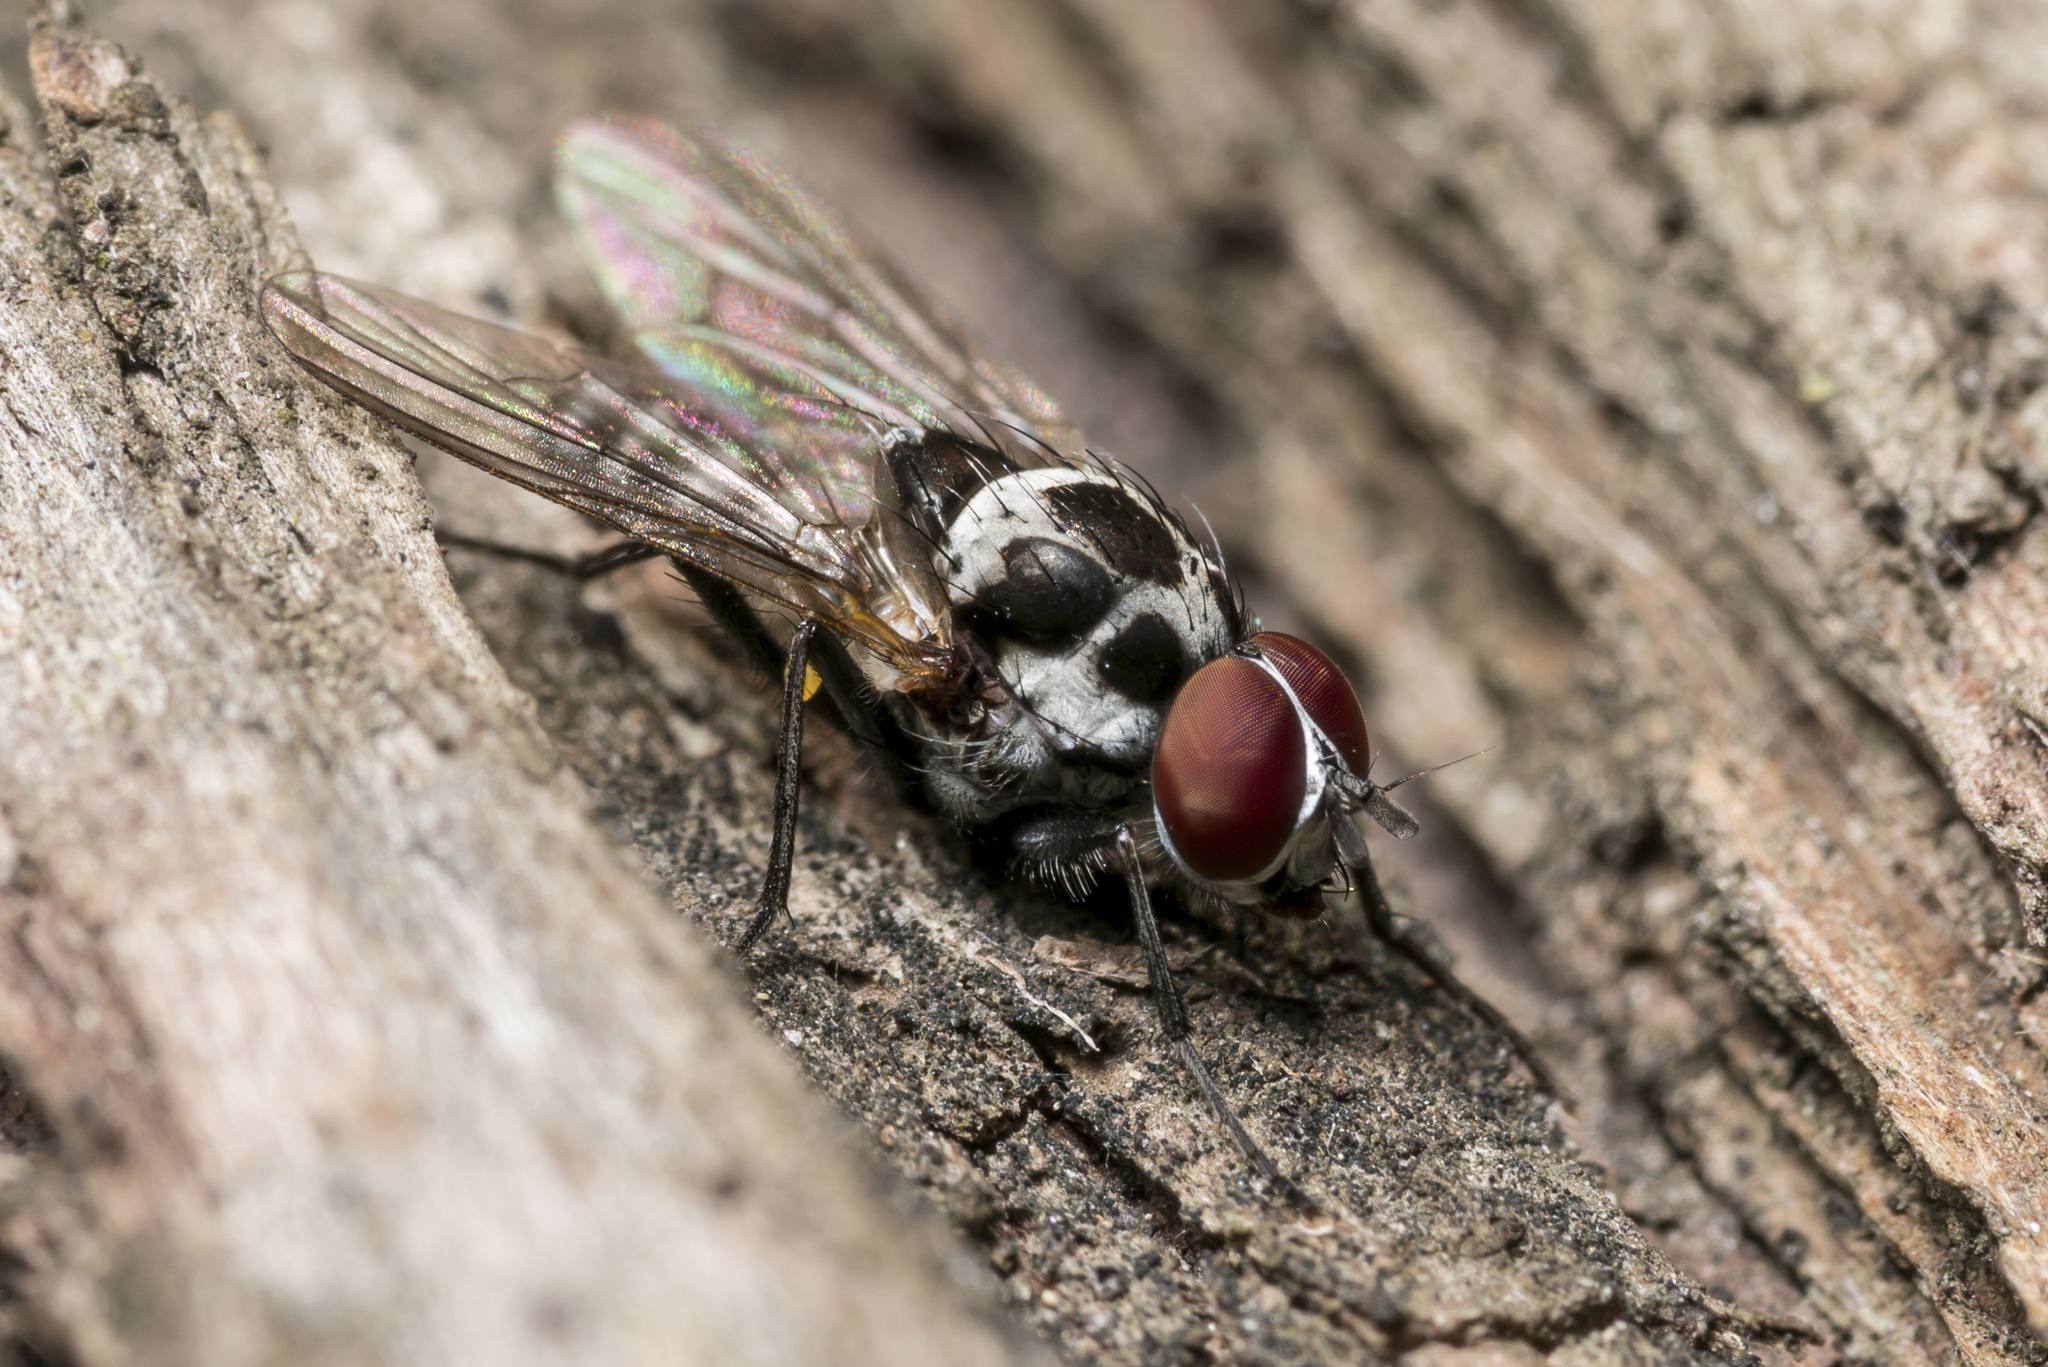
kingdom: Animalia
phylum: Arthropoda
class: Insecta
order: Diptera
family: Anthomyiidae
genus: Anthomyia
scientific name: Anthomyia pluvialis
